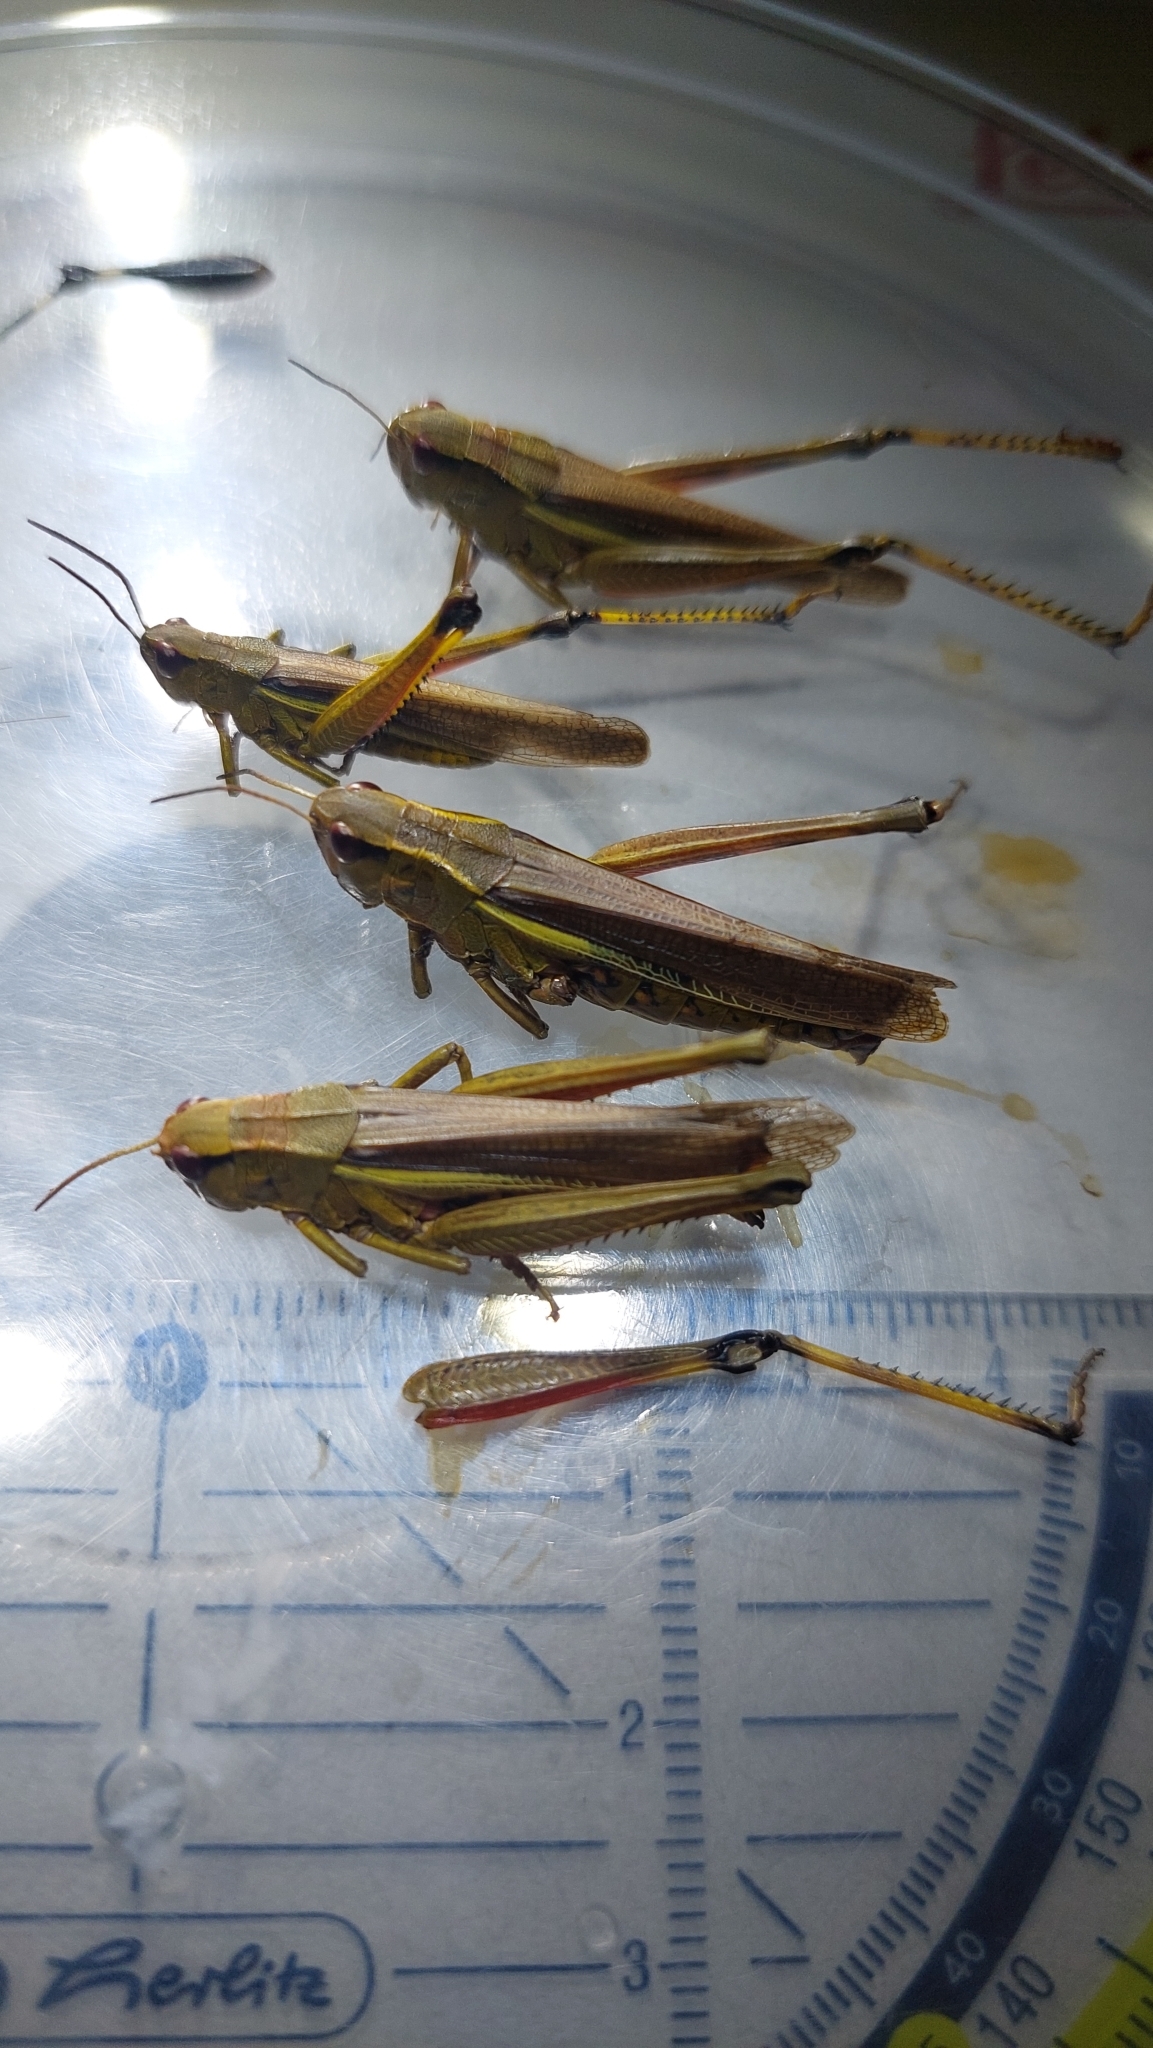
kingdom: Animalia
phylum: Arthropoda
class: Insecta
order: Orthoptera
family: Acrididae
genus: Stethophyma
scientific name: Stethophyma grossum
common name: Large marsh grasshopper
